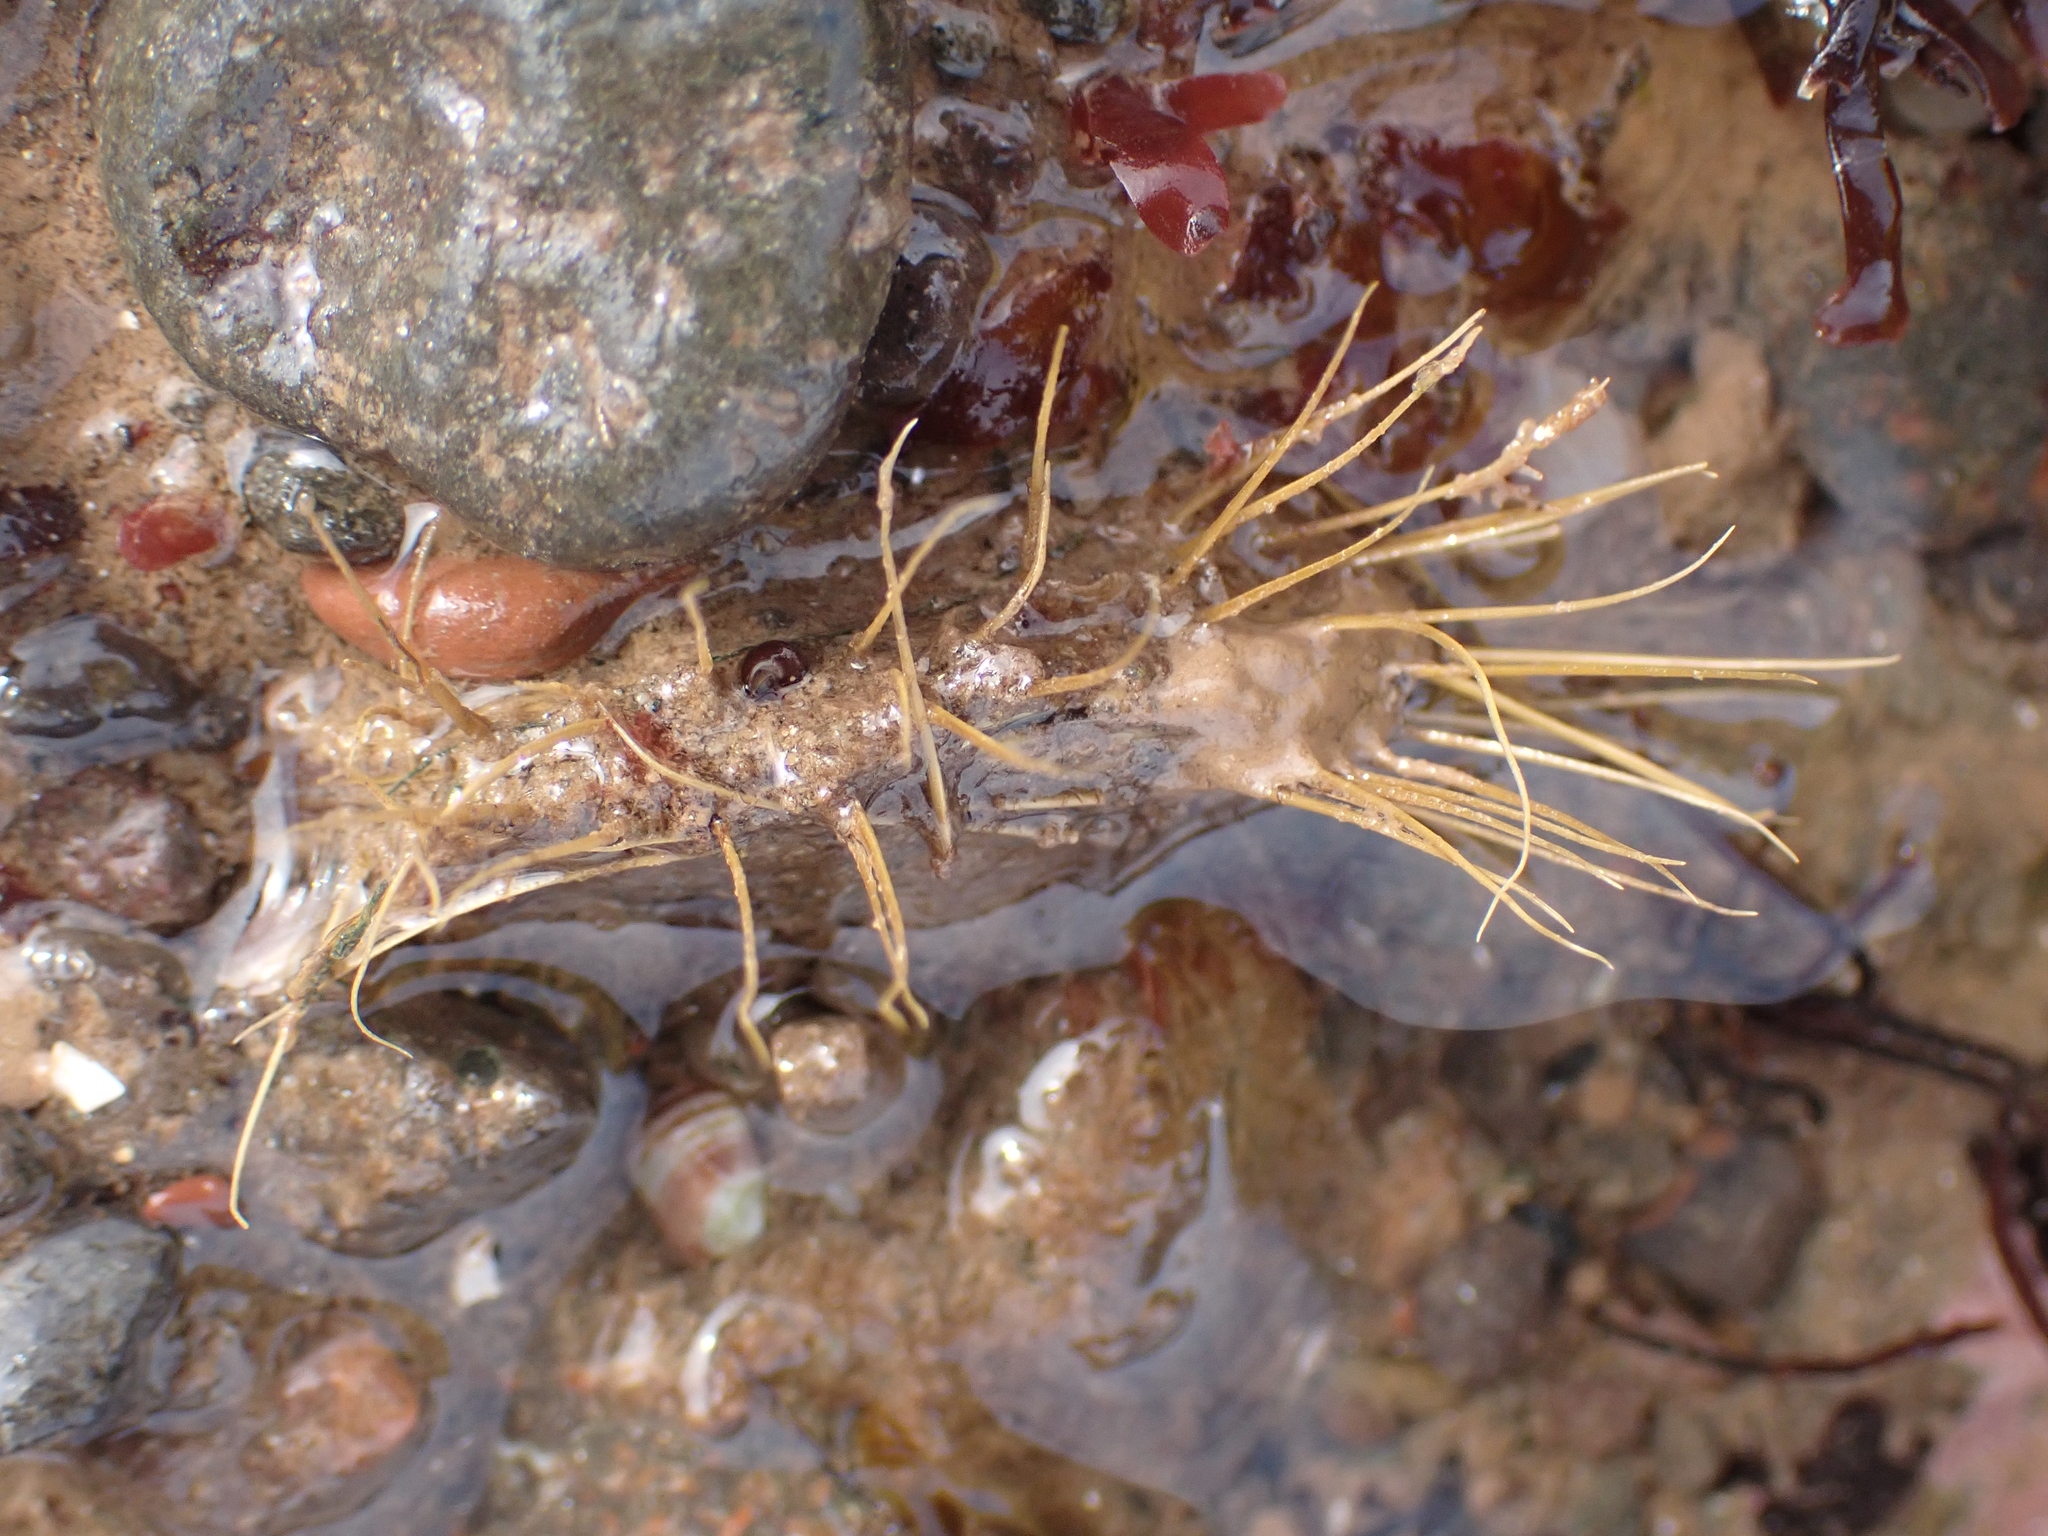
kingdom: Animalia
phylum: Mollusca
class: Bivalvia
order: Mytilida
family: Mytilidae
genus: Modiolus
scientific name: Modiolus modiolus
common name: Horse-mussel
